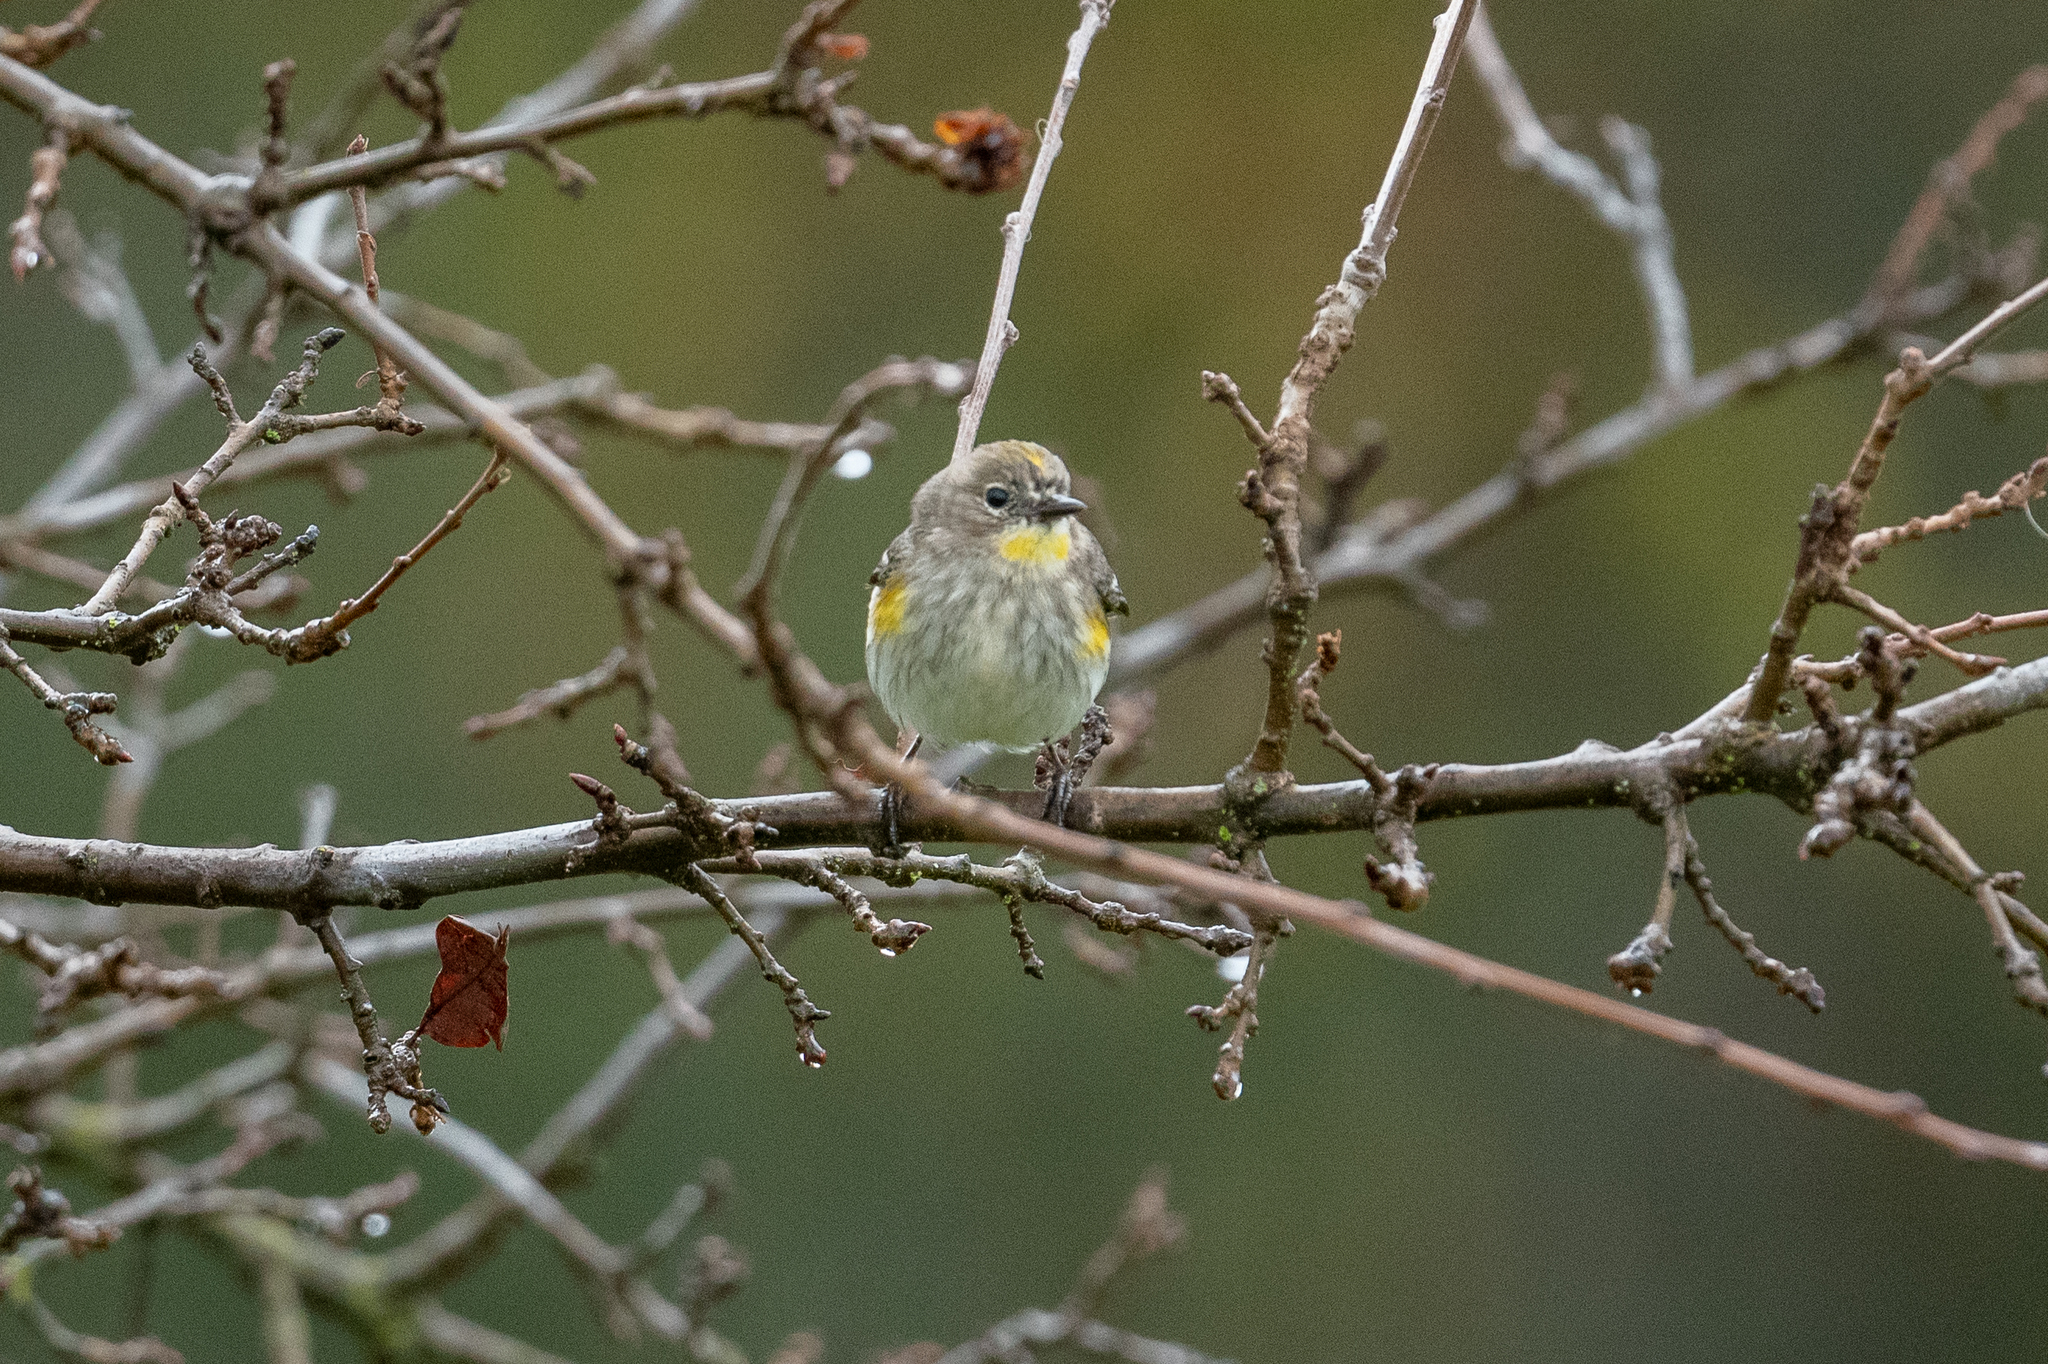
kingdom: Animalia
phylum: Chordata
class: Aves
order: Passeriformes
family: Parulidae
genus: Setophaga
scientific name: Setophaga coronata
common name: Myrtle warbler
